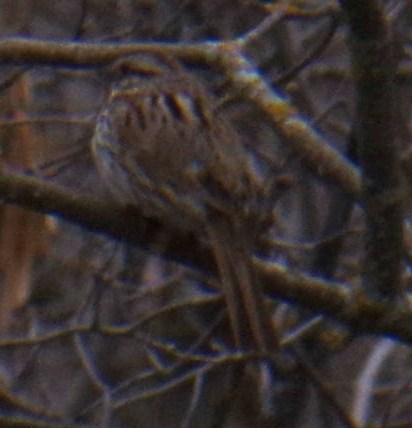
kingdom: Animalia
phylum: Chordata
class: Aves
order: Passeriformes
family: Passerellidae
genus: Melospiza
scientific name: Melospiza melodia
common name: Song sparrow
